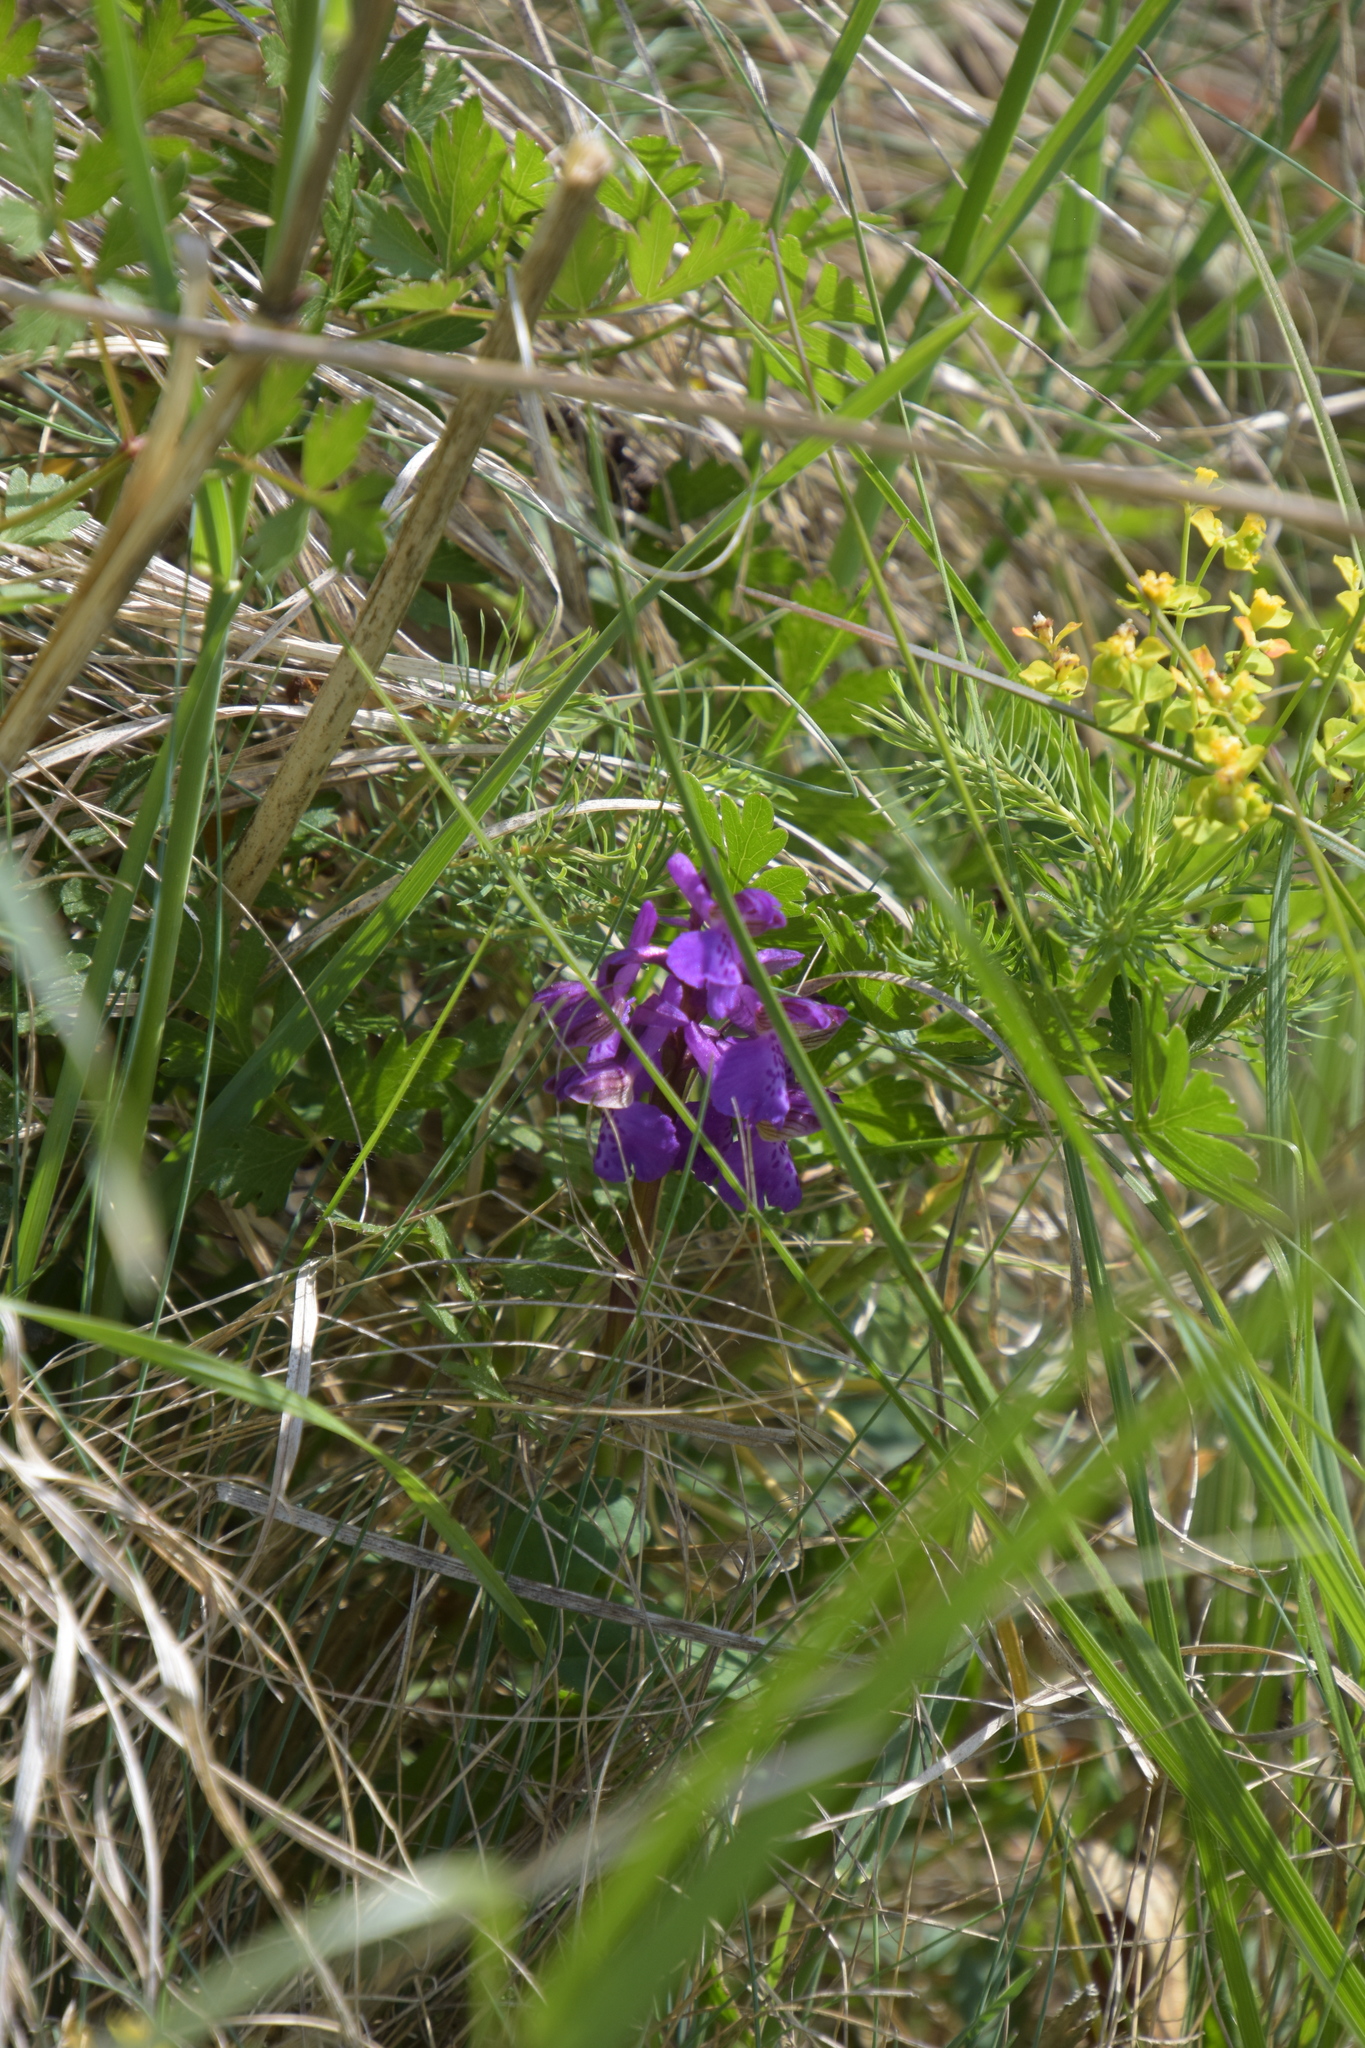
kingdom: Plantae
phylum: Tracheophyta
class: Liliopsida
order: Asparagales
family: Orchidaceae
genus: Anacamptis
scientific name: Anacamptis morio
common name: Green-winged orchid
